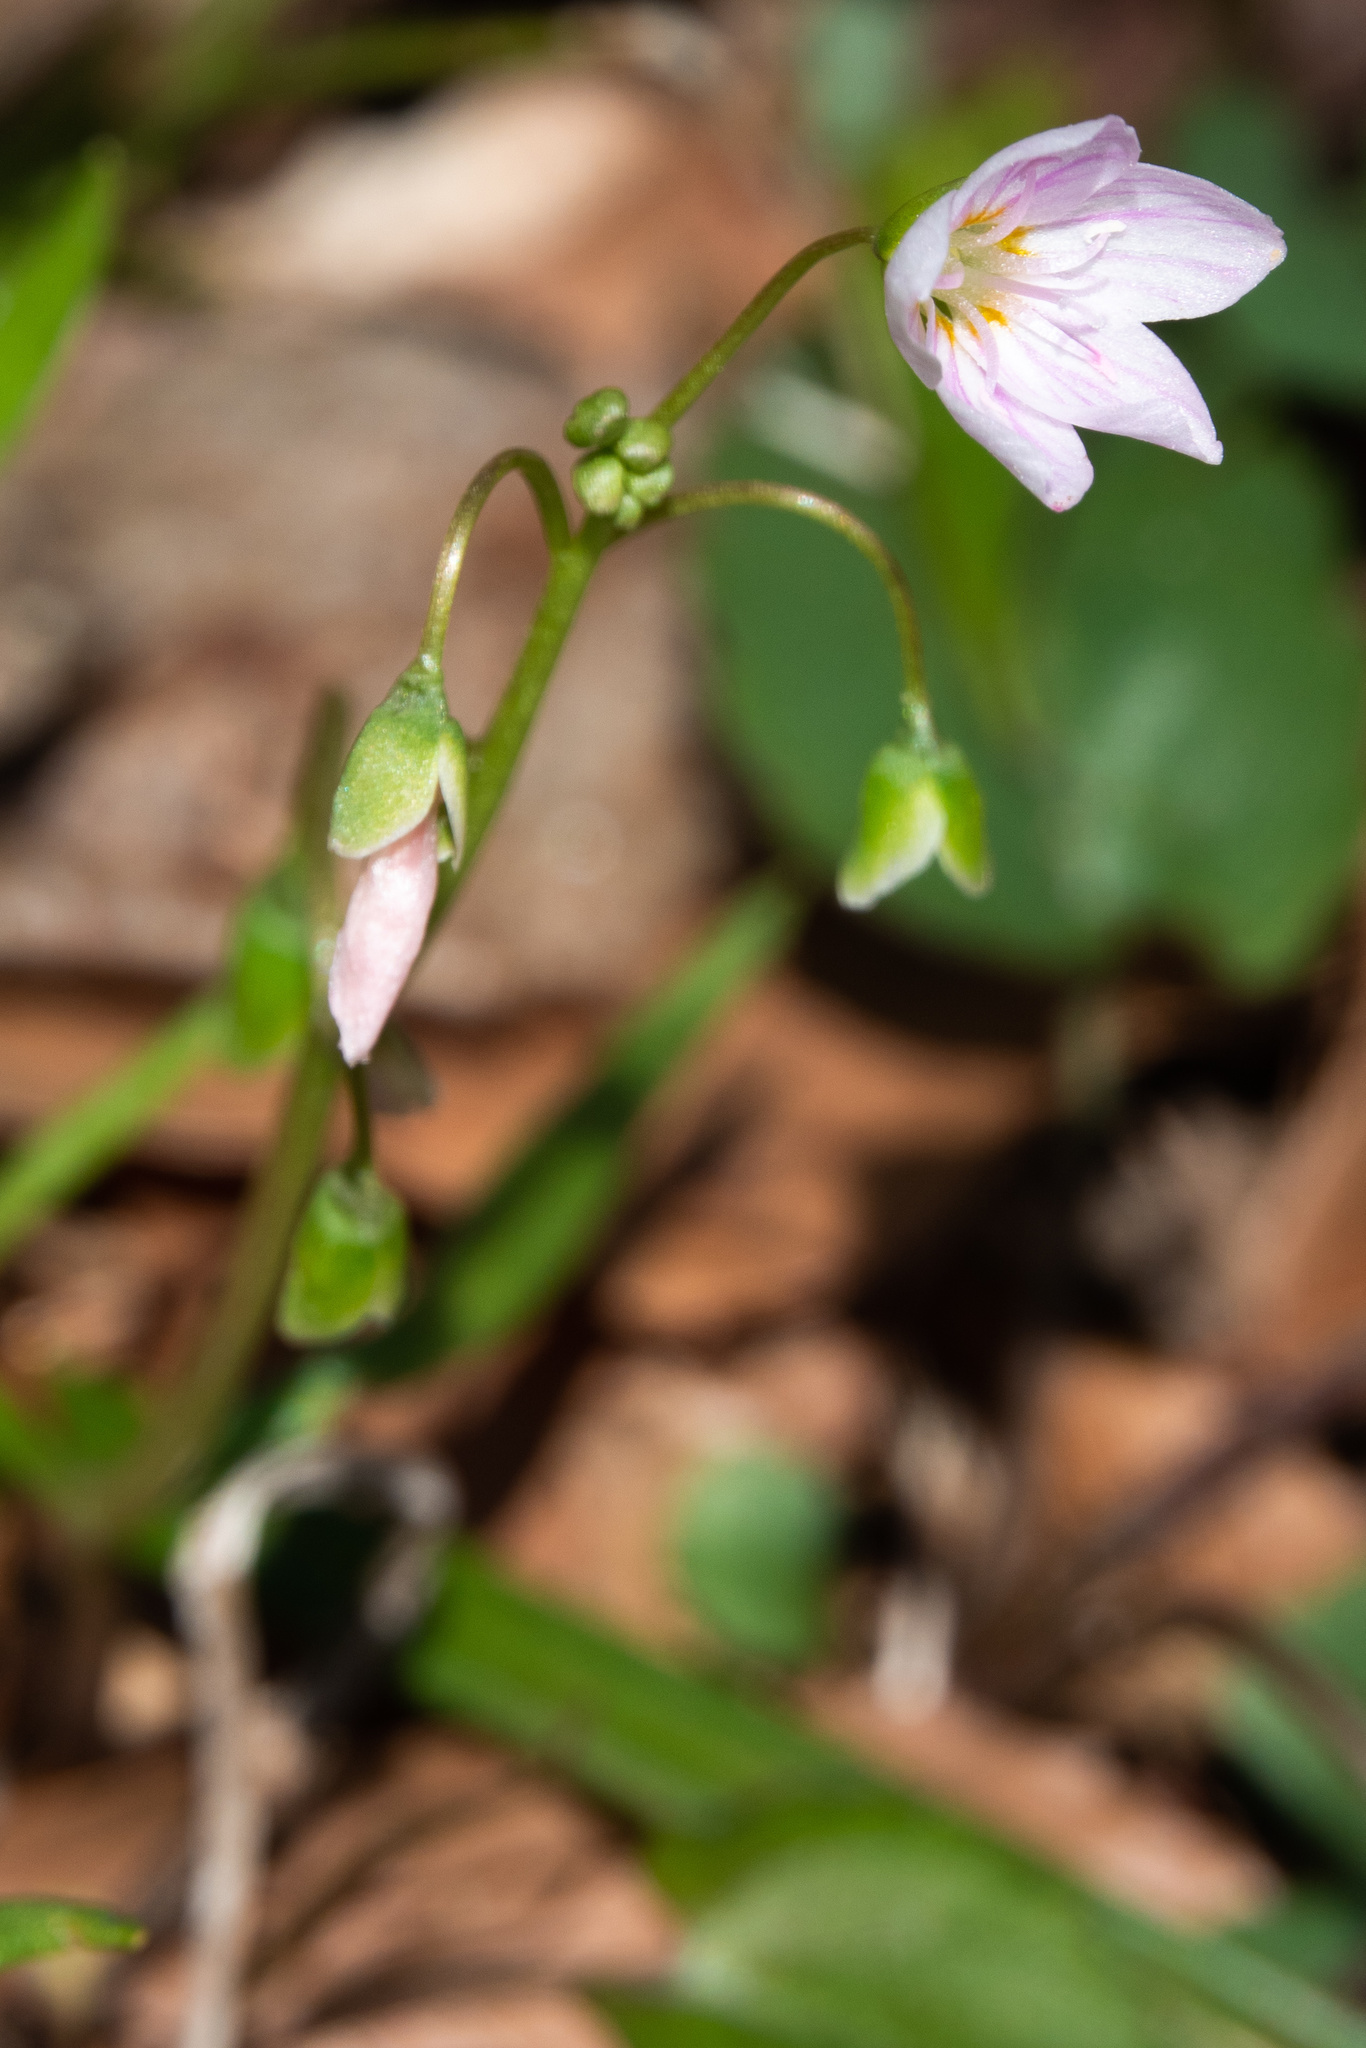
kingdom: Plantae
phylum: Tracheophyta
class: Magnoliopsida
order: Caryophyllales
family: Montiaceae
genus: Claytonia
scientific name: Claytonia virginica
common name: Virginia springbeauty
